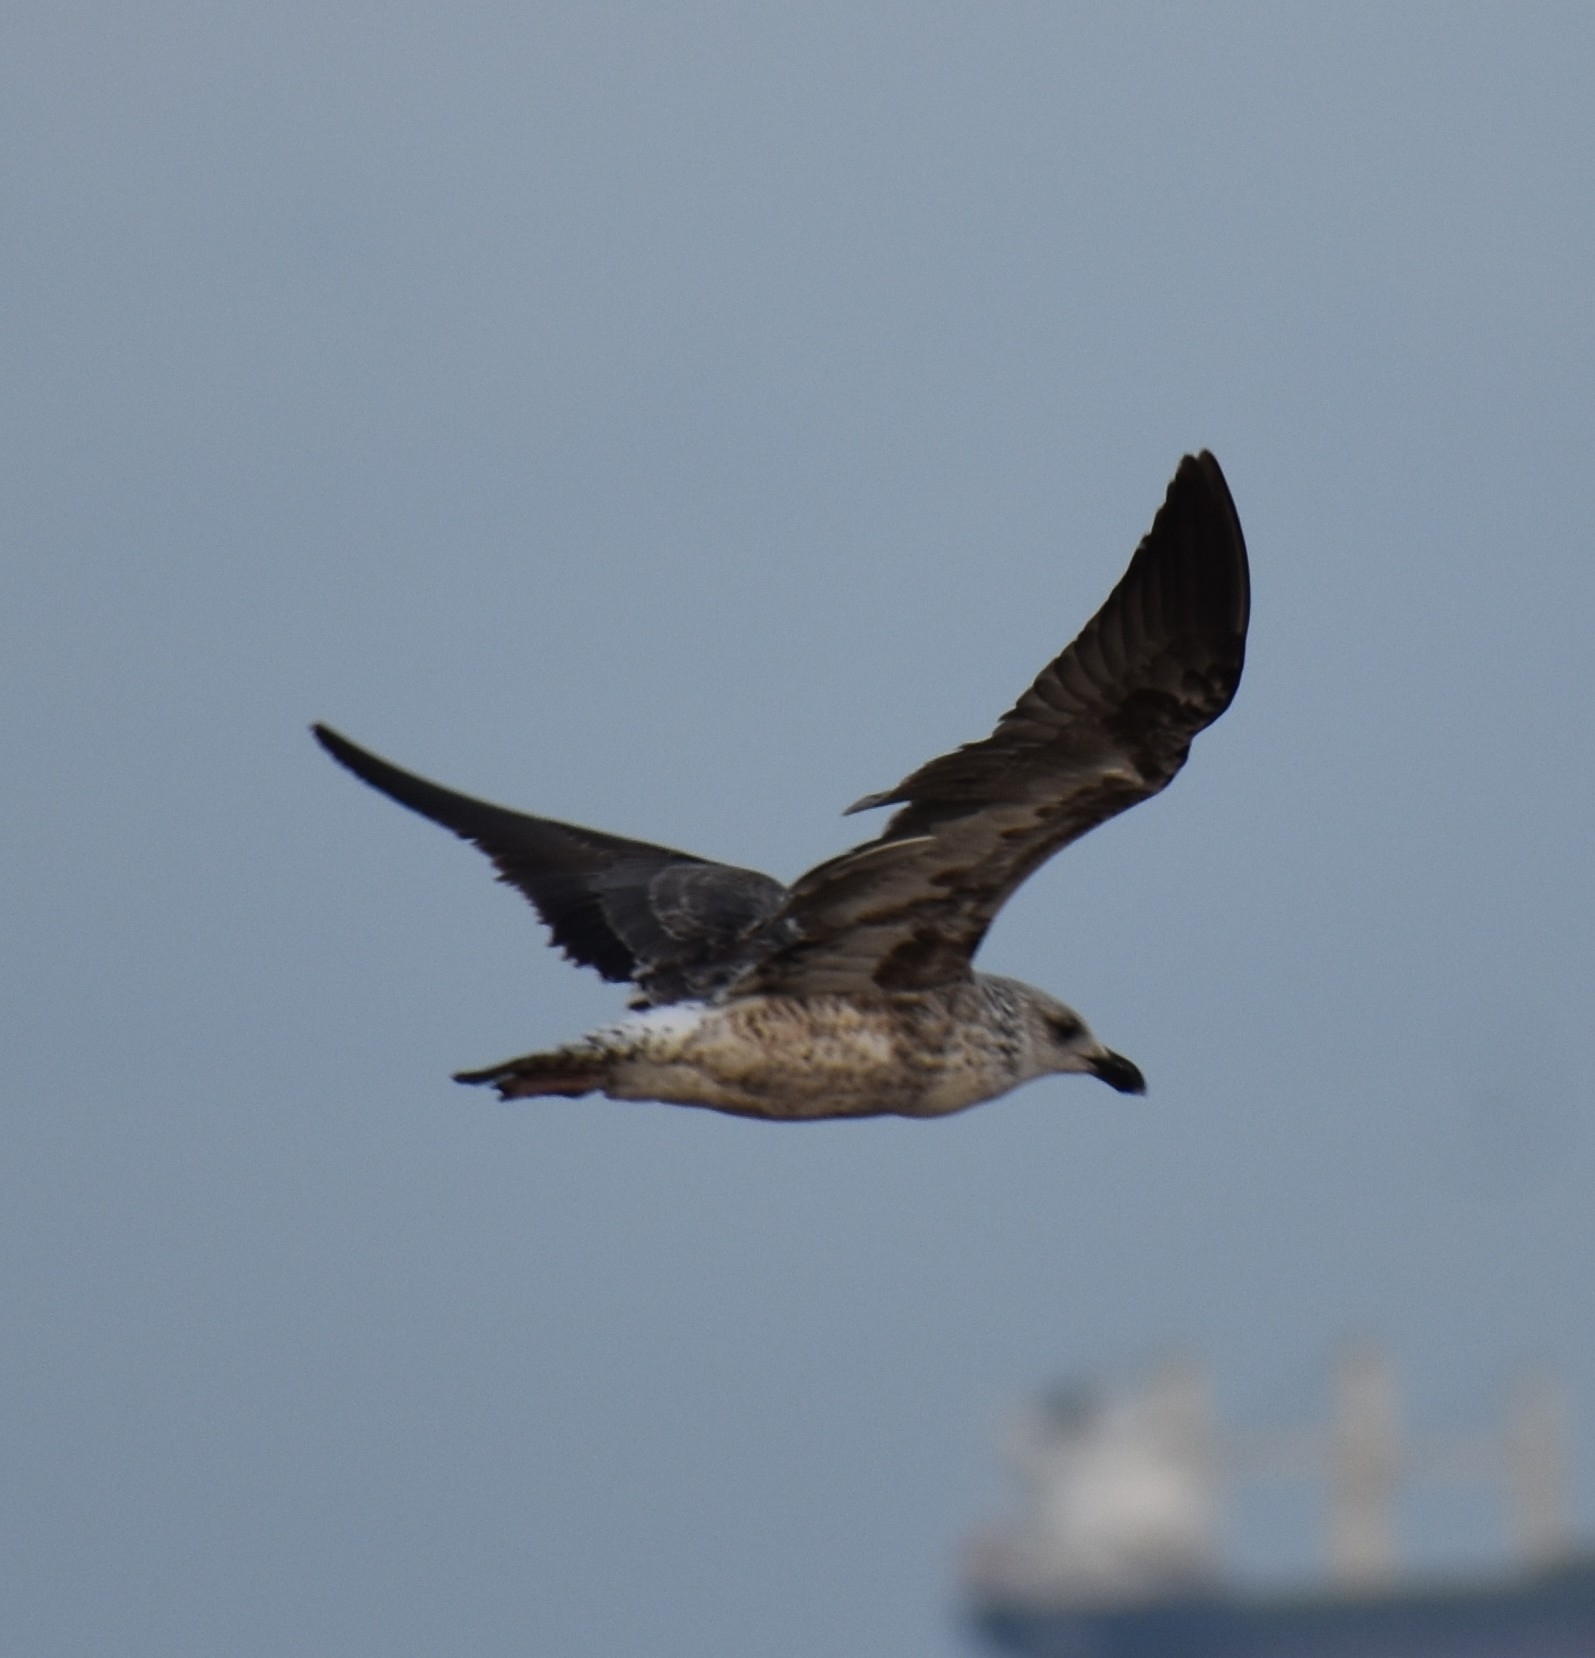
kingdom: Animalia
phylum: Chordata
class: Aves
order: Charadriiformes
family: Laridae
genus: Larus
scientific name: Larus dominicanus
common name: Kelp gull
